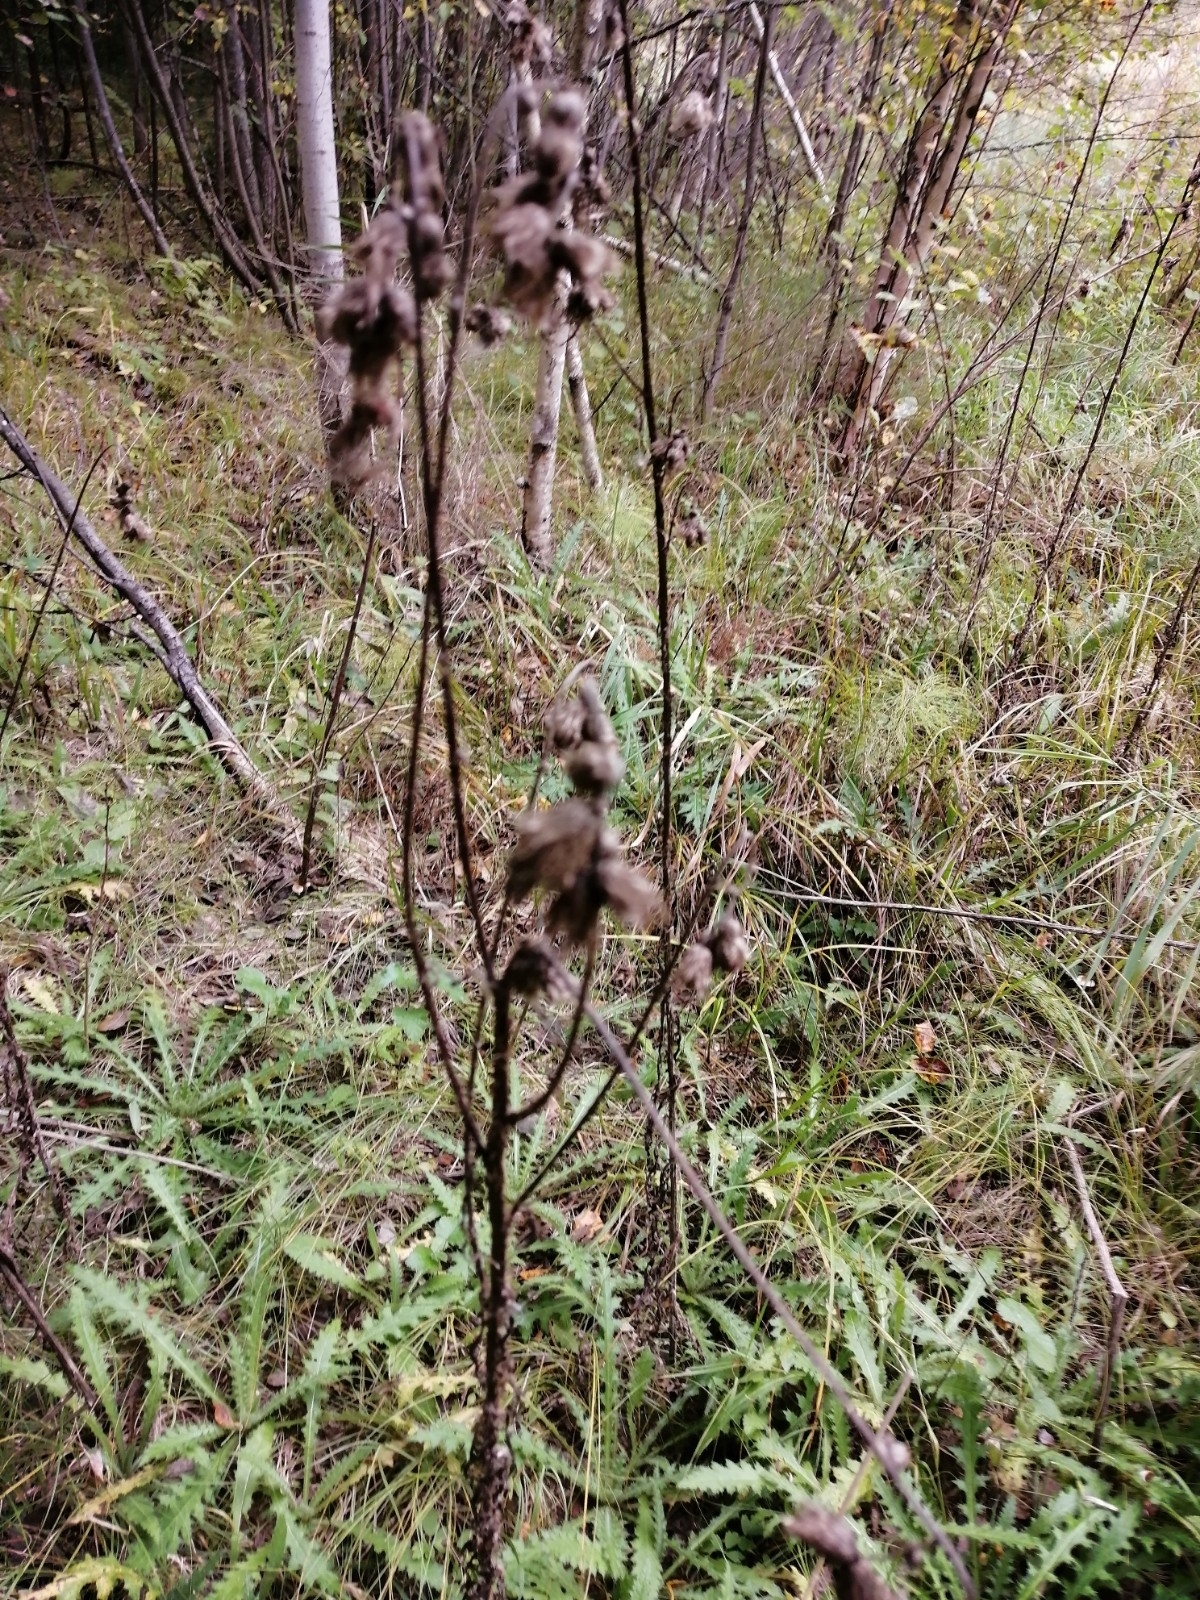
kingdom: Plantae
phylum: Tracheophyta
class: Magnoliopsida
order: Asterales
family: Asteraceae
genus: Cirsium
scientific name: Cirsium palustre
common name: Marsh thistle
